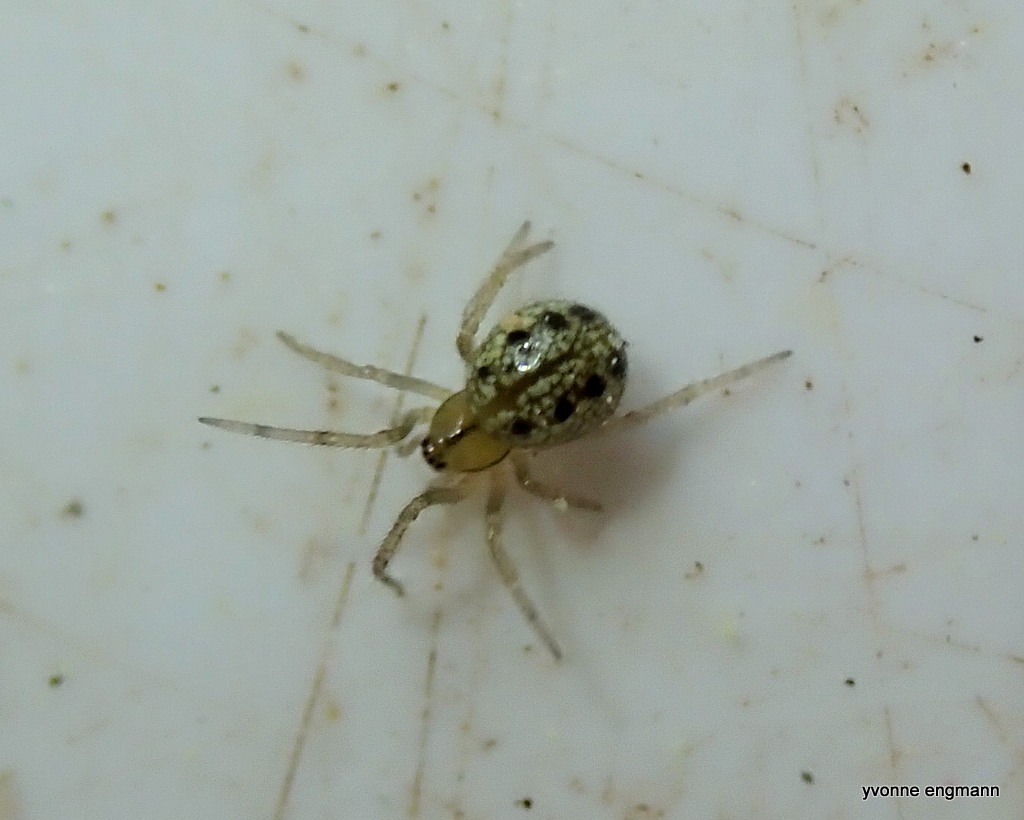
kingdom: Animalia
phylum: Arthropoda
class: Arachnida
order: Araneae
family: Theridiidae
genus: Enoplognatha
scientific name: Enoplognatha ovata
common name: Common candy-striped spider
